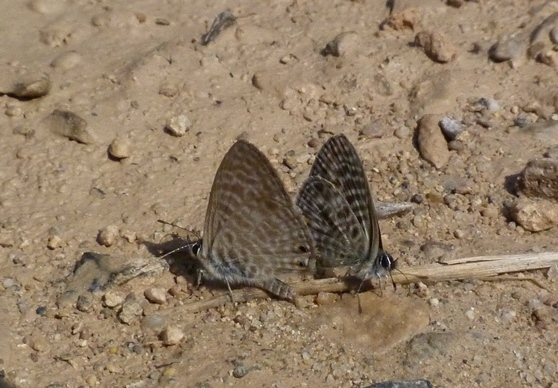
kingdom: Animalia
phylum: Arthropoda
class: Insecta
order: Lepidoptera
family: Lycaenidae
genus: Leptotes
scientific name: Leptotes pirithous
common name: Lang's short-tailed blue
